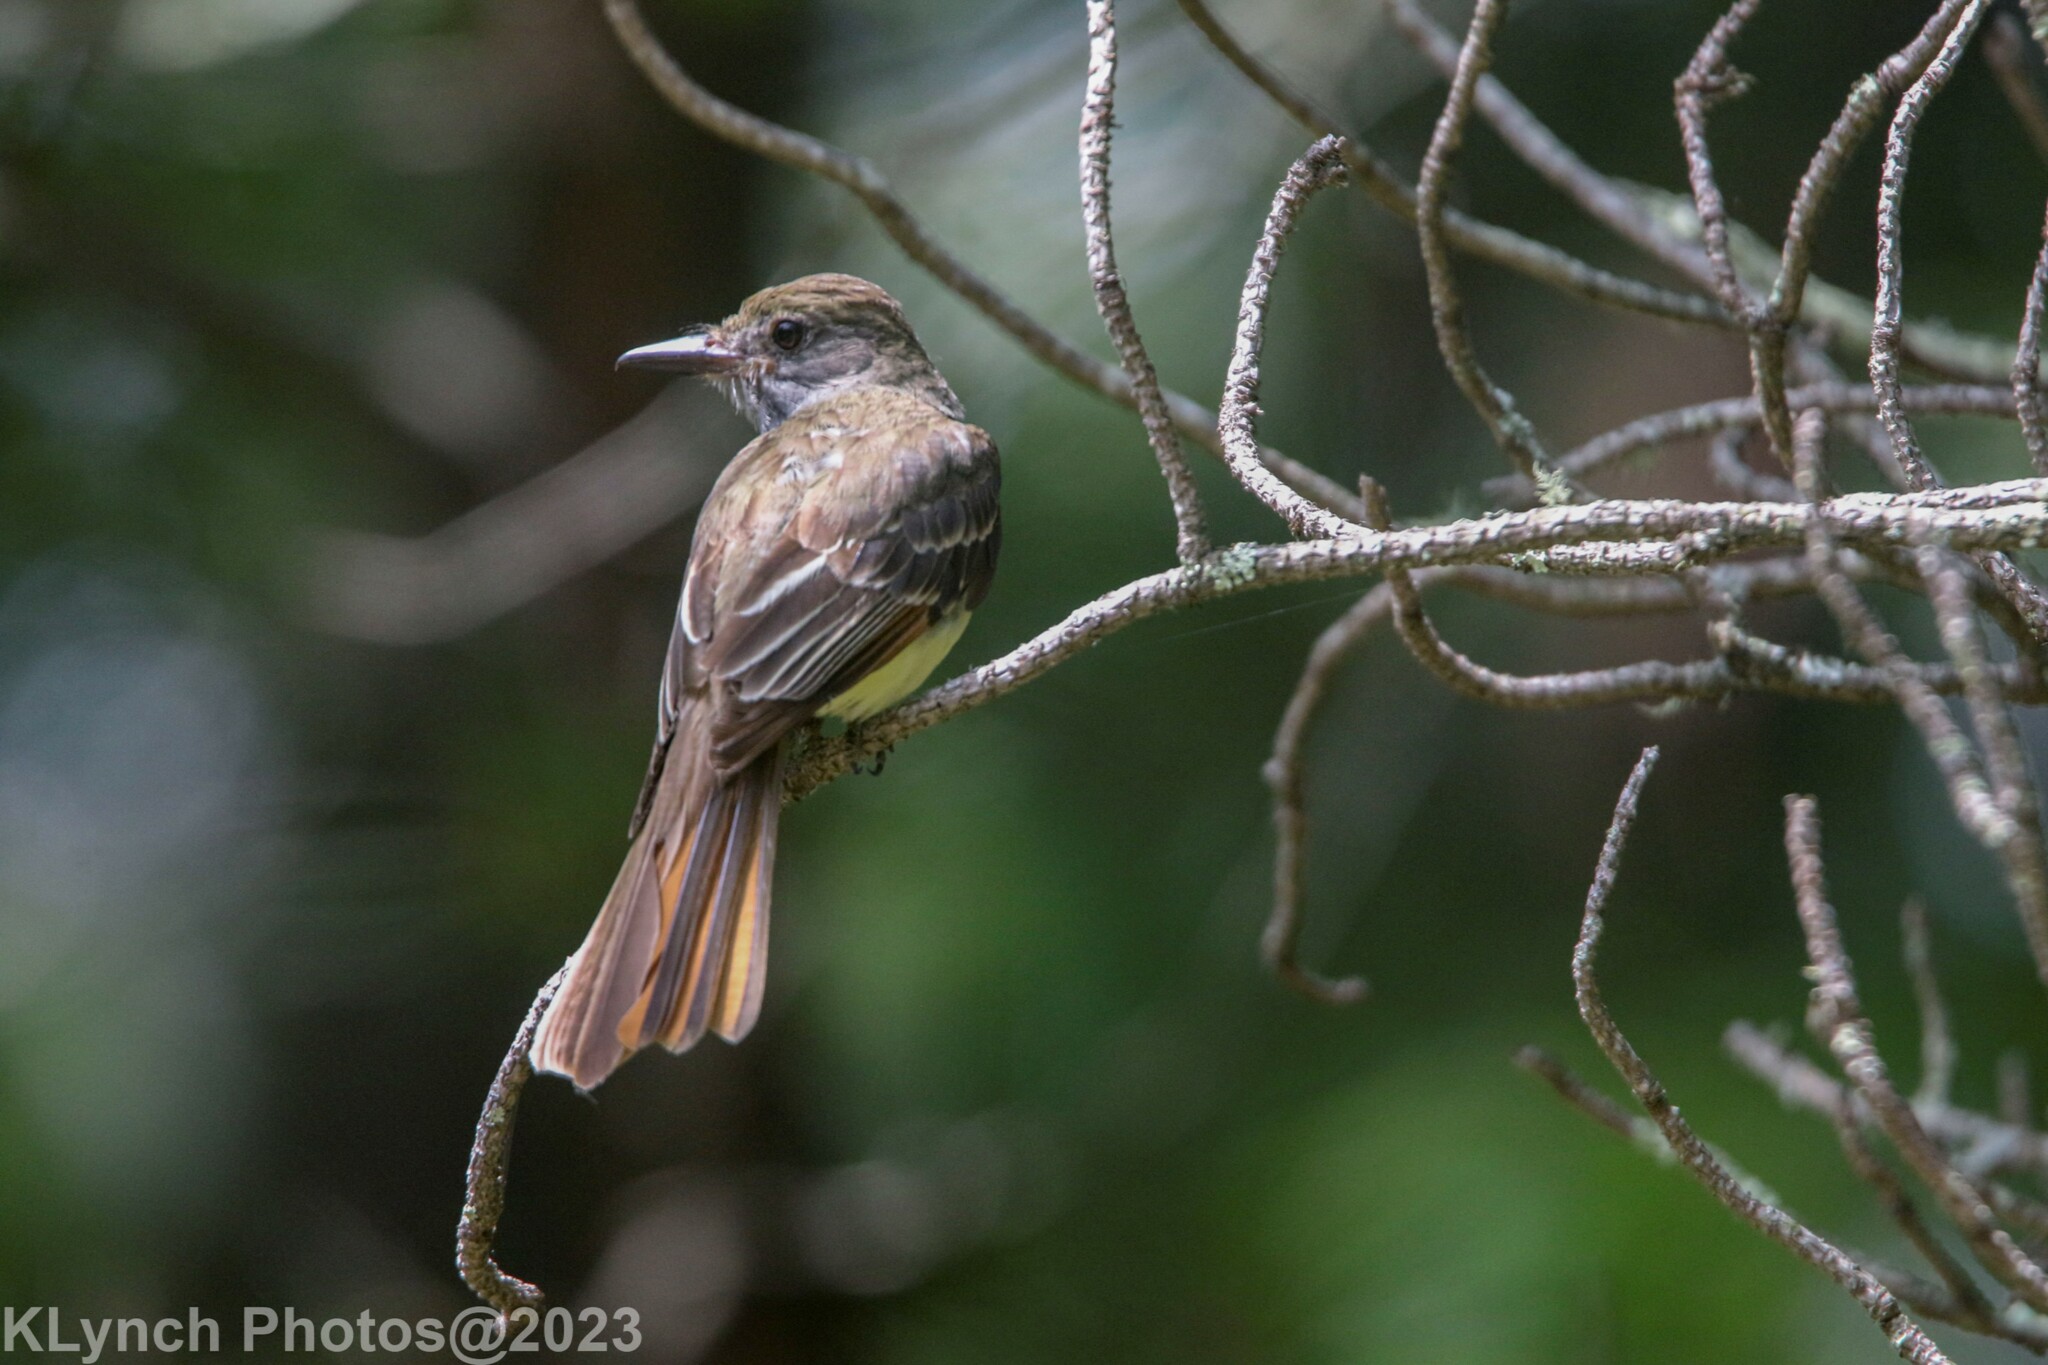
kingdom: Animalia
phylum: Chordata
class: Aves
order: Passeriformes
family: Tyrannidae
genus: Myiarchus
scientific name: Myiarchus crinitus
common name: Great crested flycatcher
